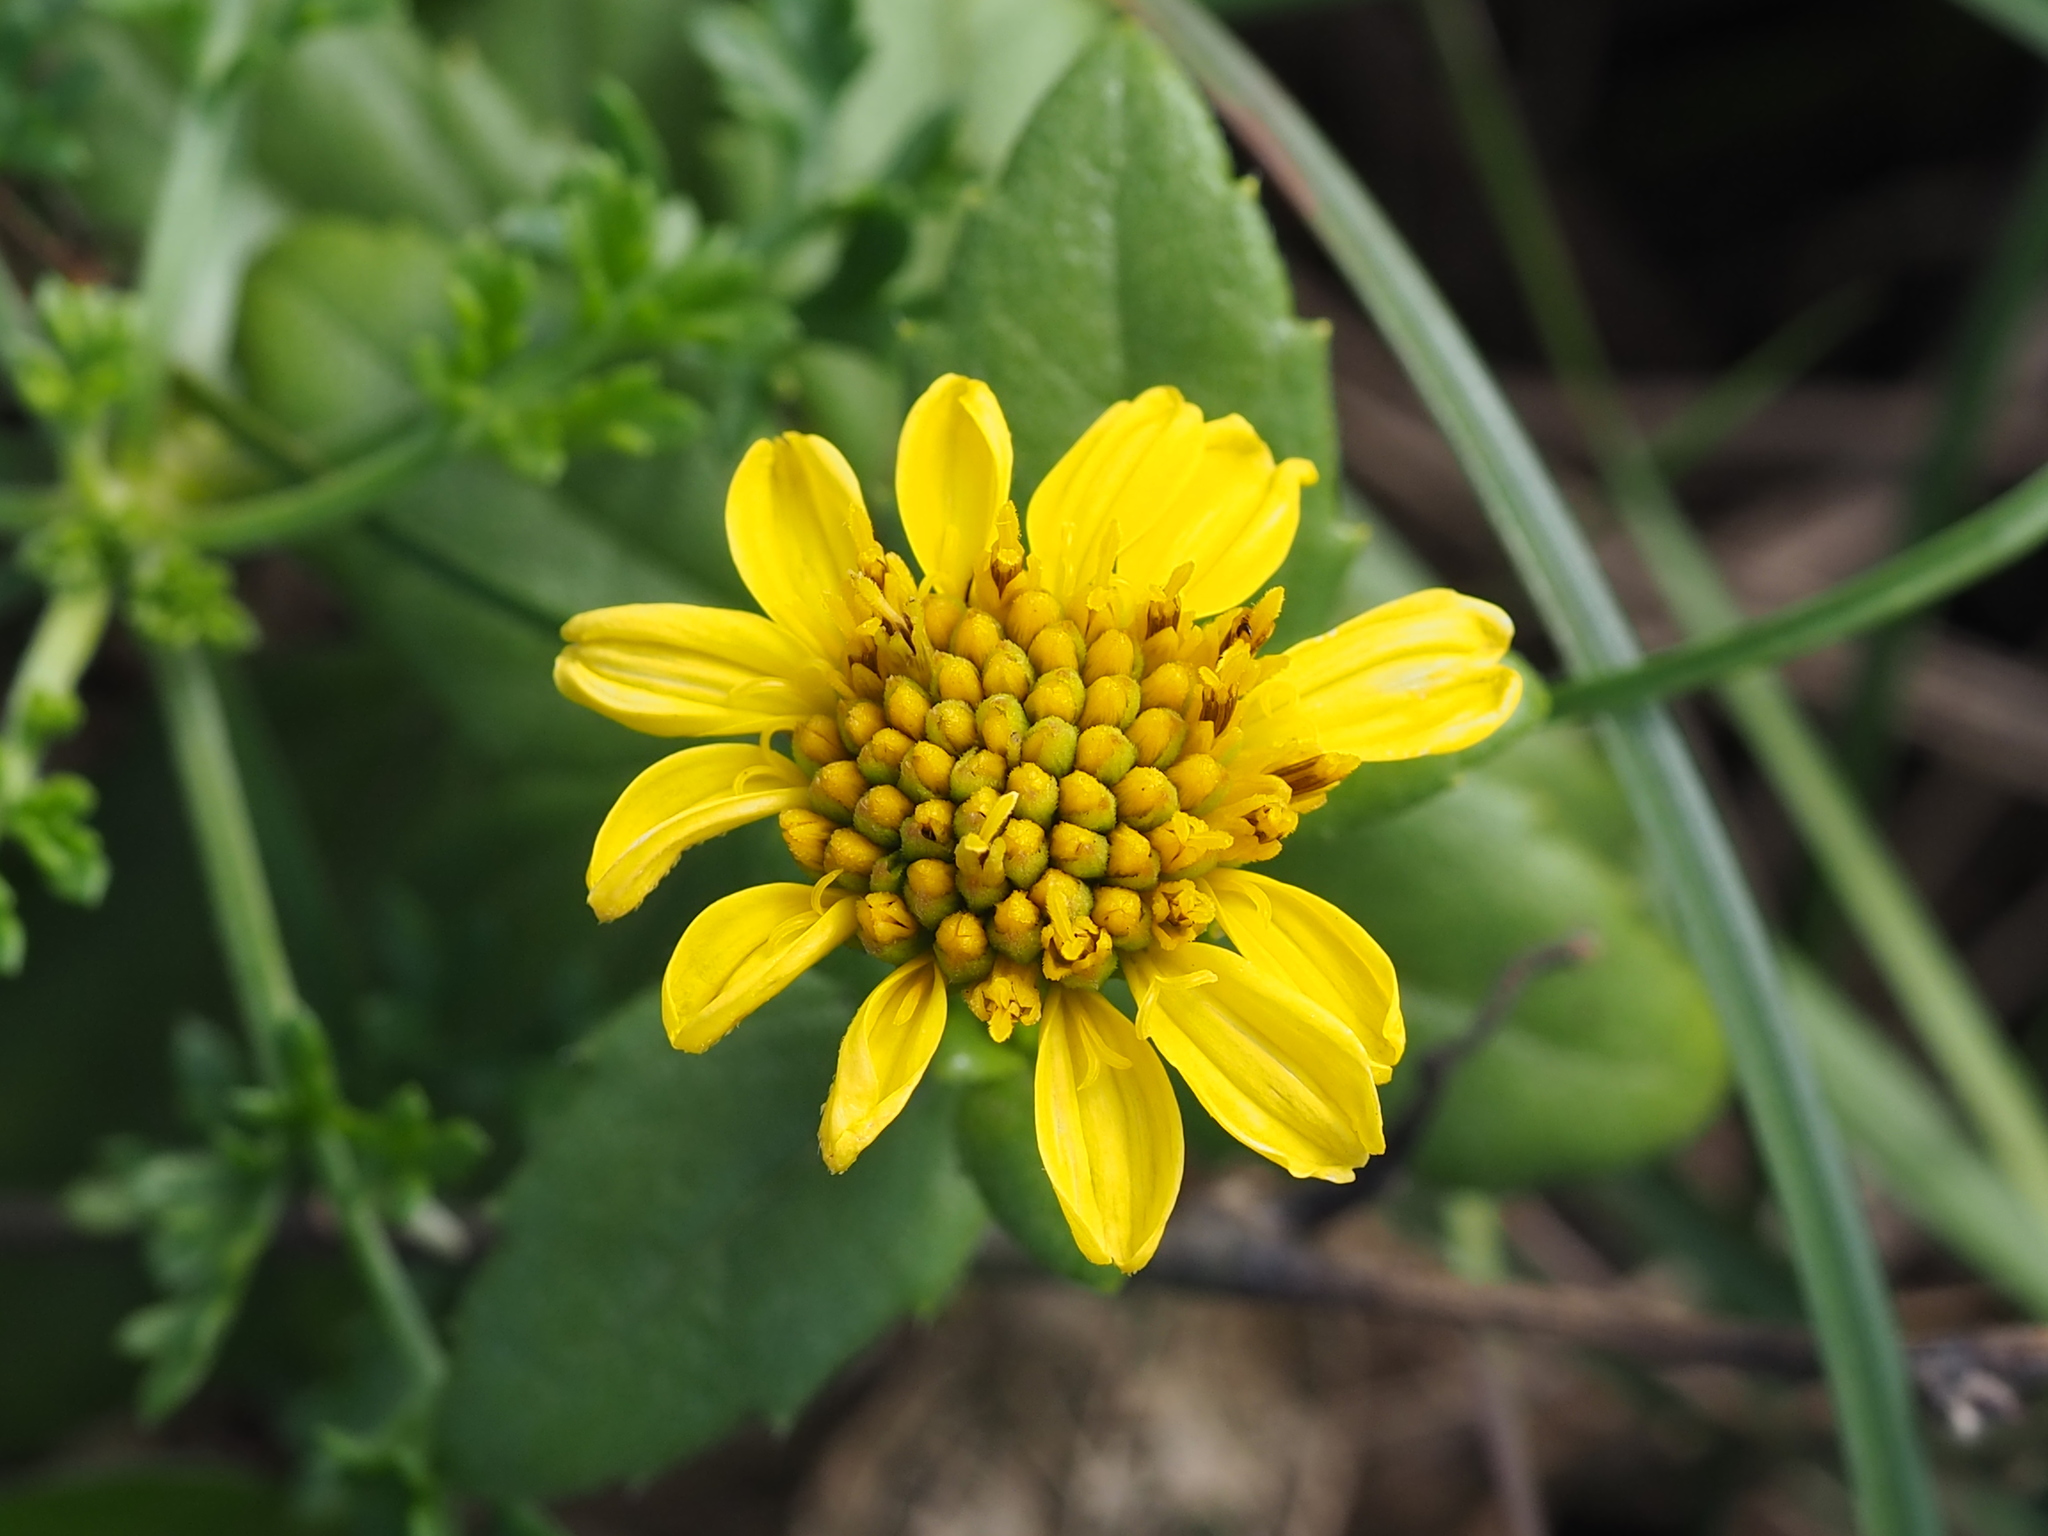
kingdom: Plantae
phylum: Tracheophyta
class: Magnoliopsida
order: Asterales
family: Asteraceae
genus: Melanthera
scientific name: Melanthera prostrata
